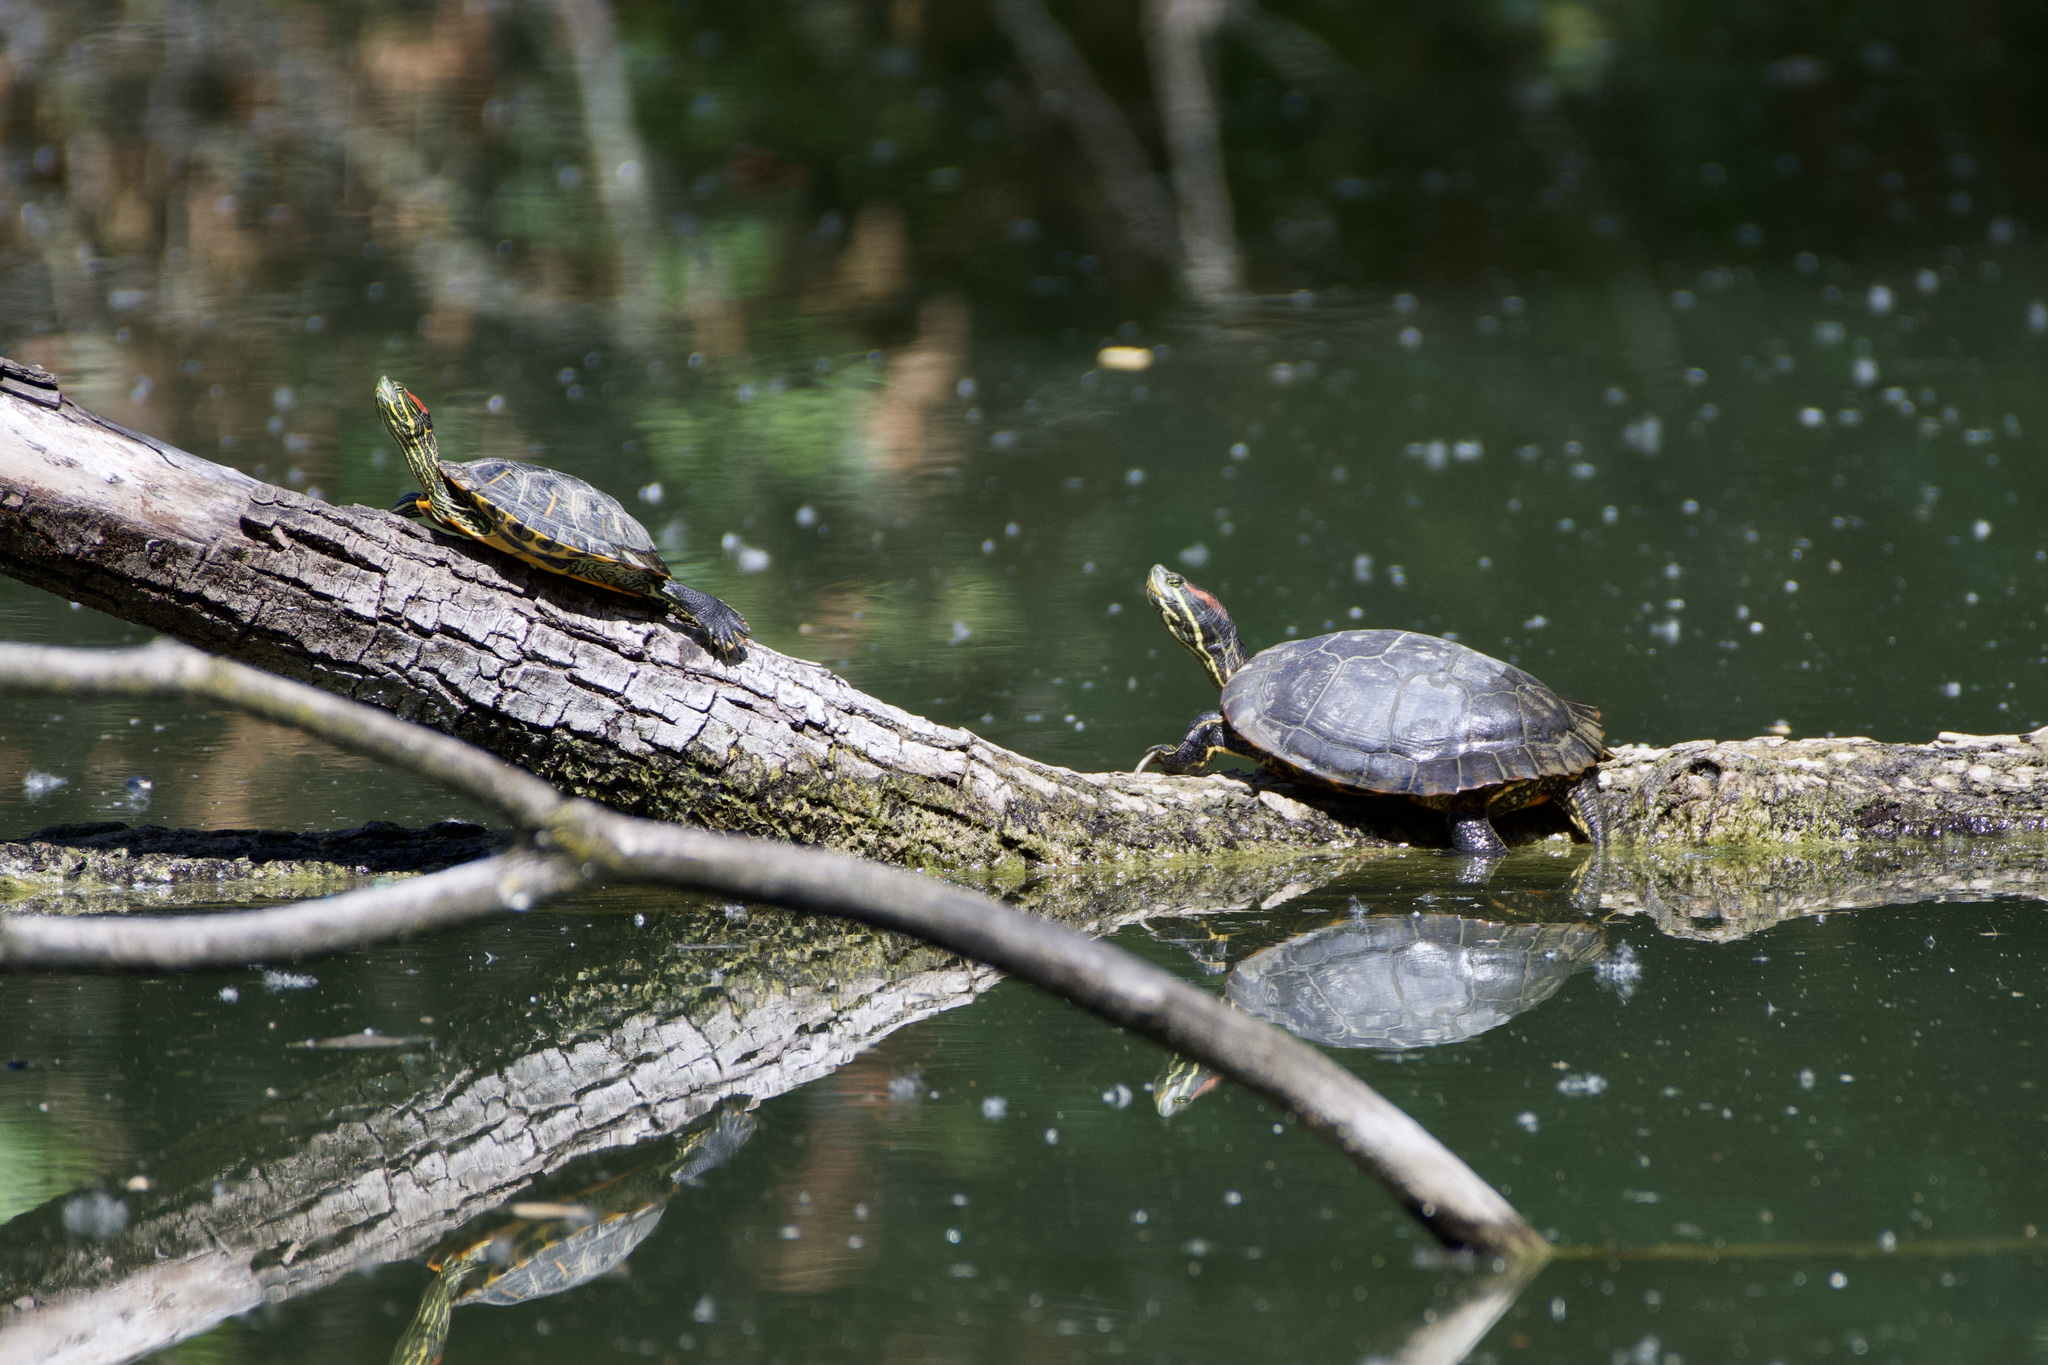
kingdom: Animalia
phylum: Chordata
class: Testudines
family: Emydidae
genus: Trachemys
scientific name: Trachemys scripta
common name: Slider
